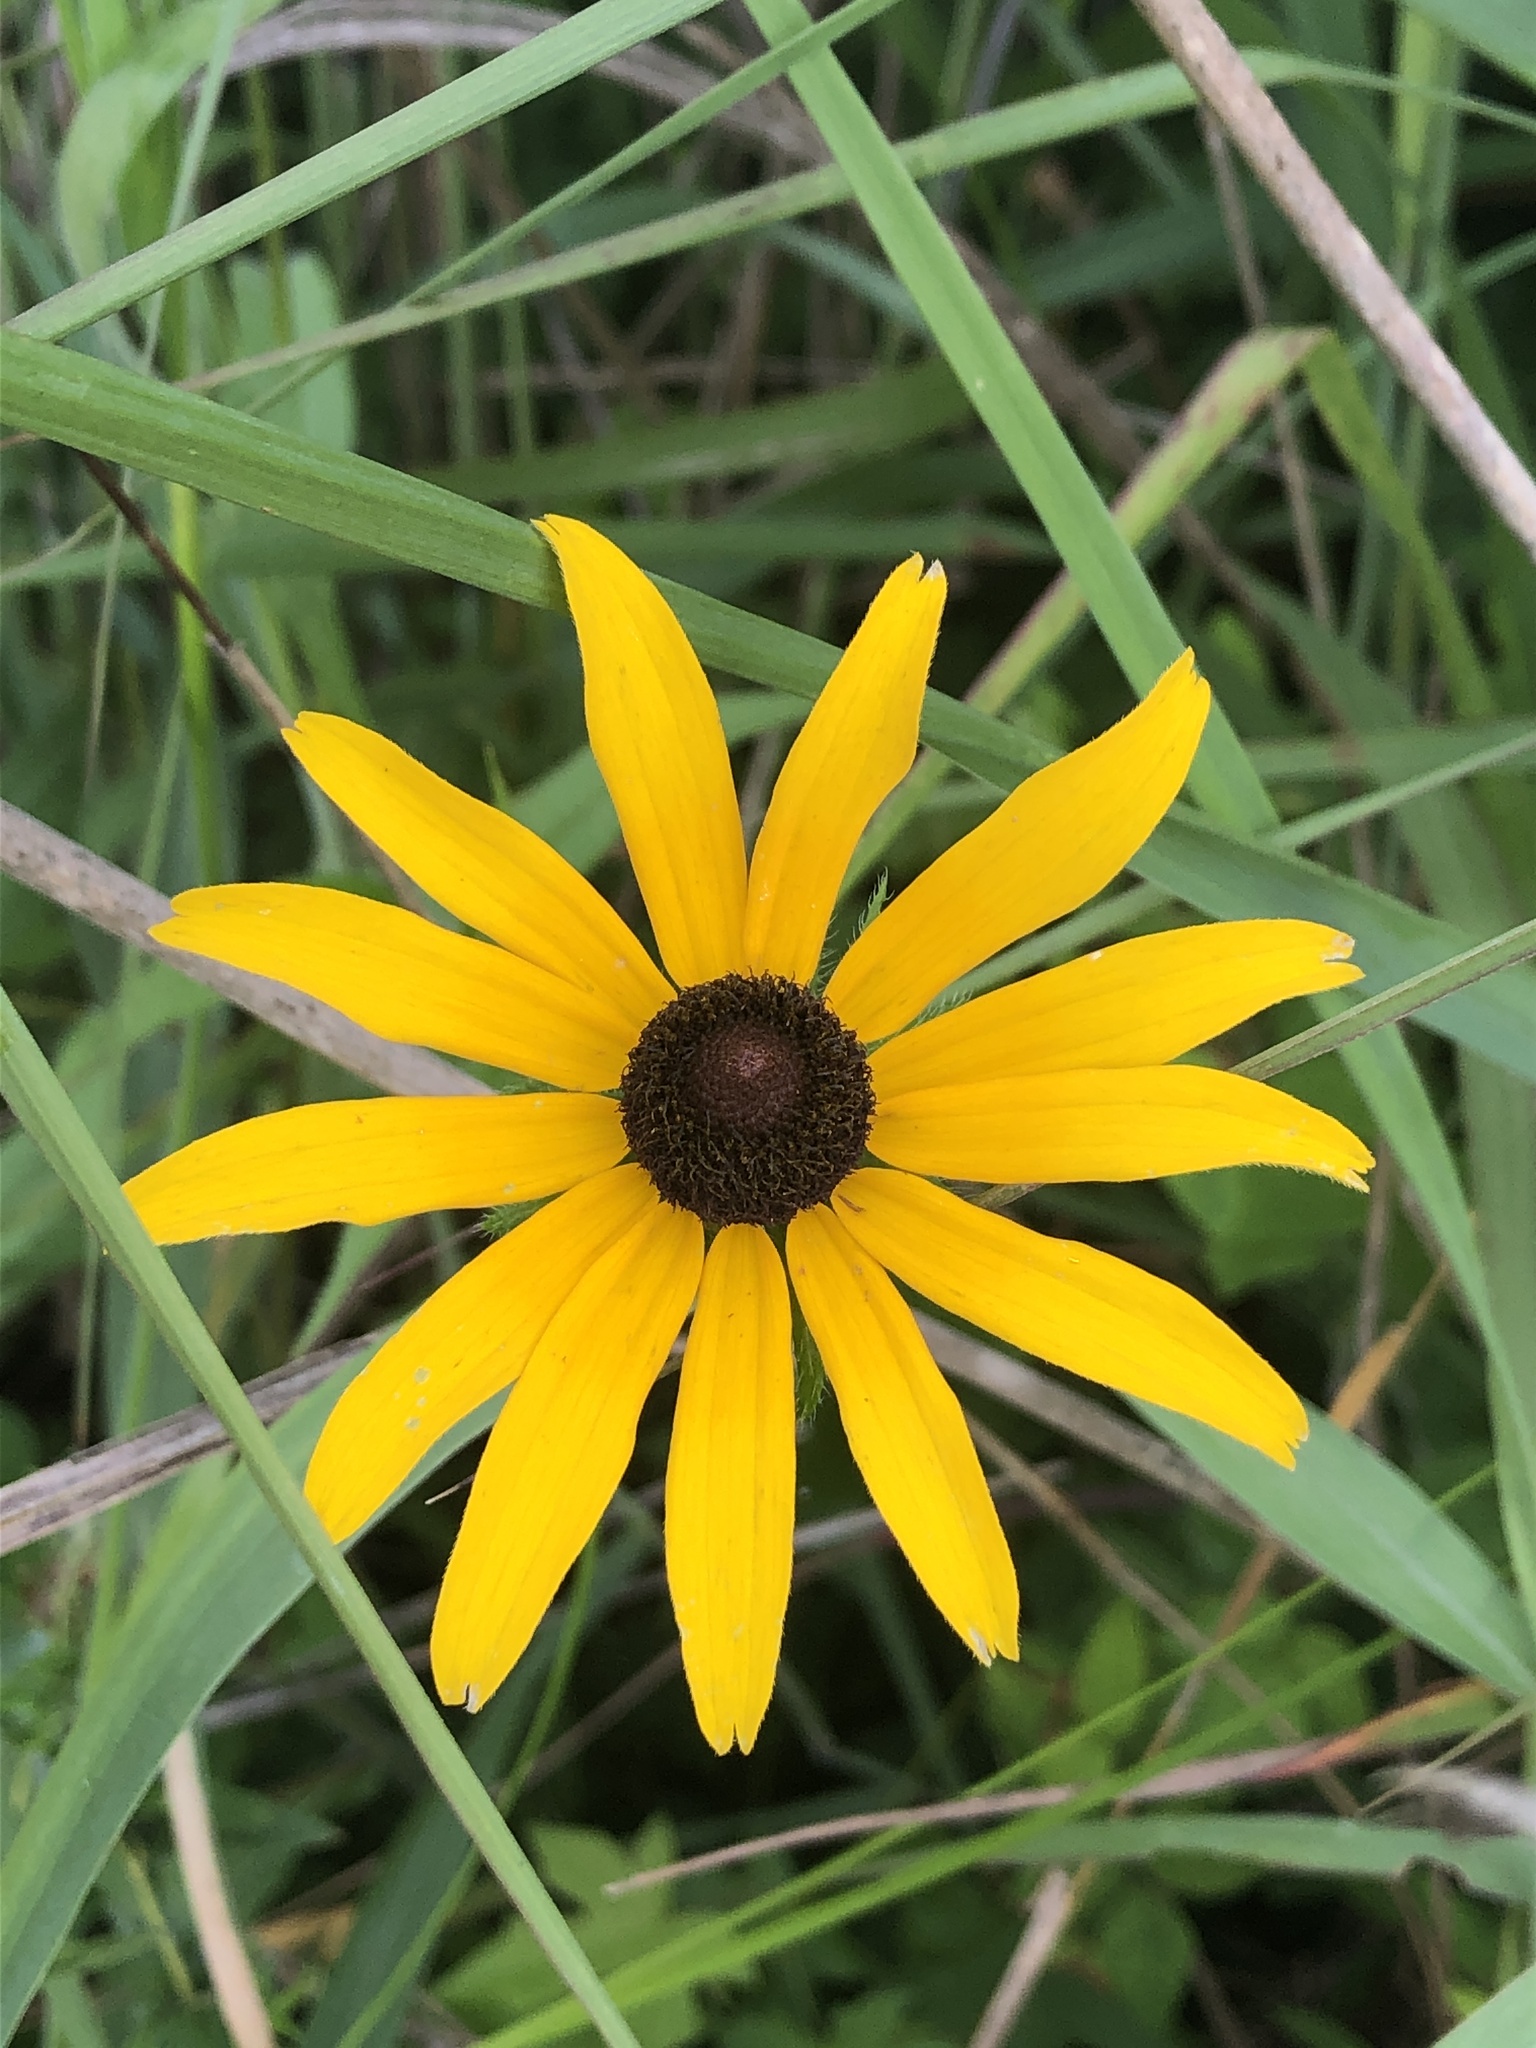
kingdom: Plantae
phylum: Tracheophyta
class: Magnoliopsida
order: Asterales
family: Asteraceae
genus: Rudbeckia
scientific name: Rudbeckia hirta
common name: Black-eyed-susan
